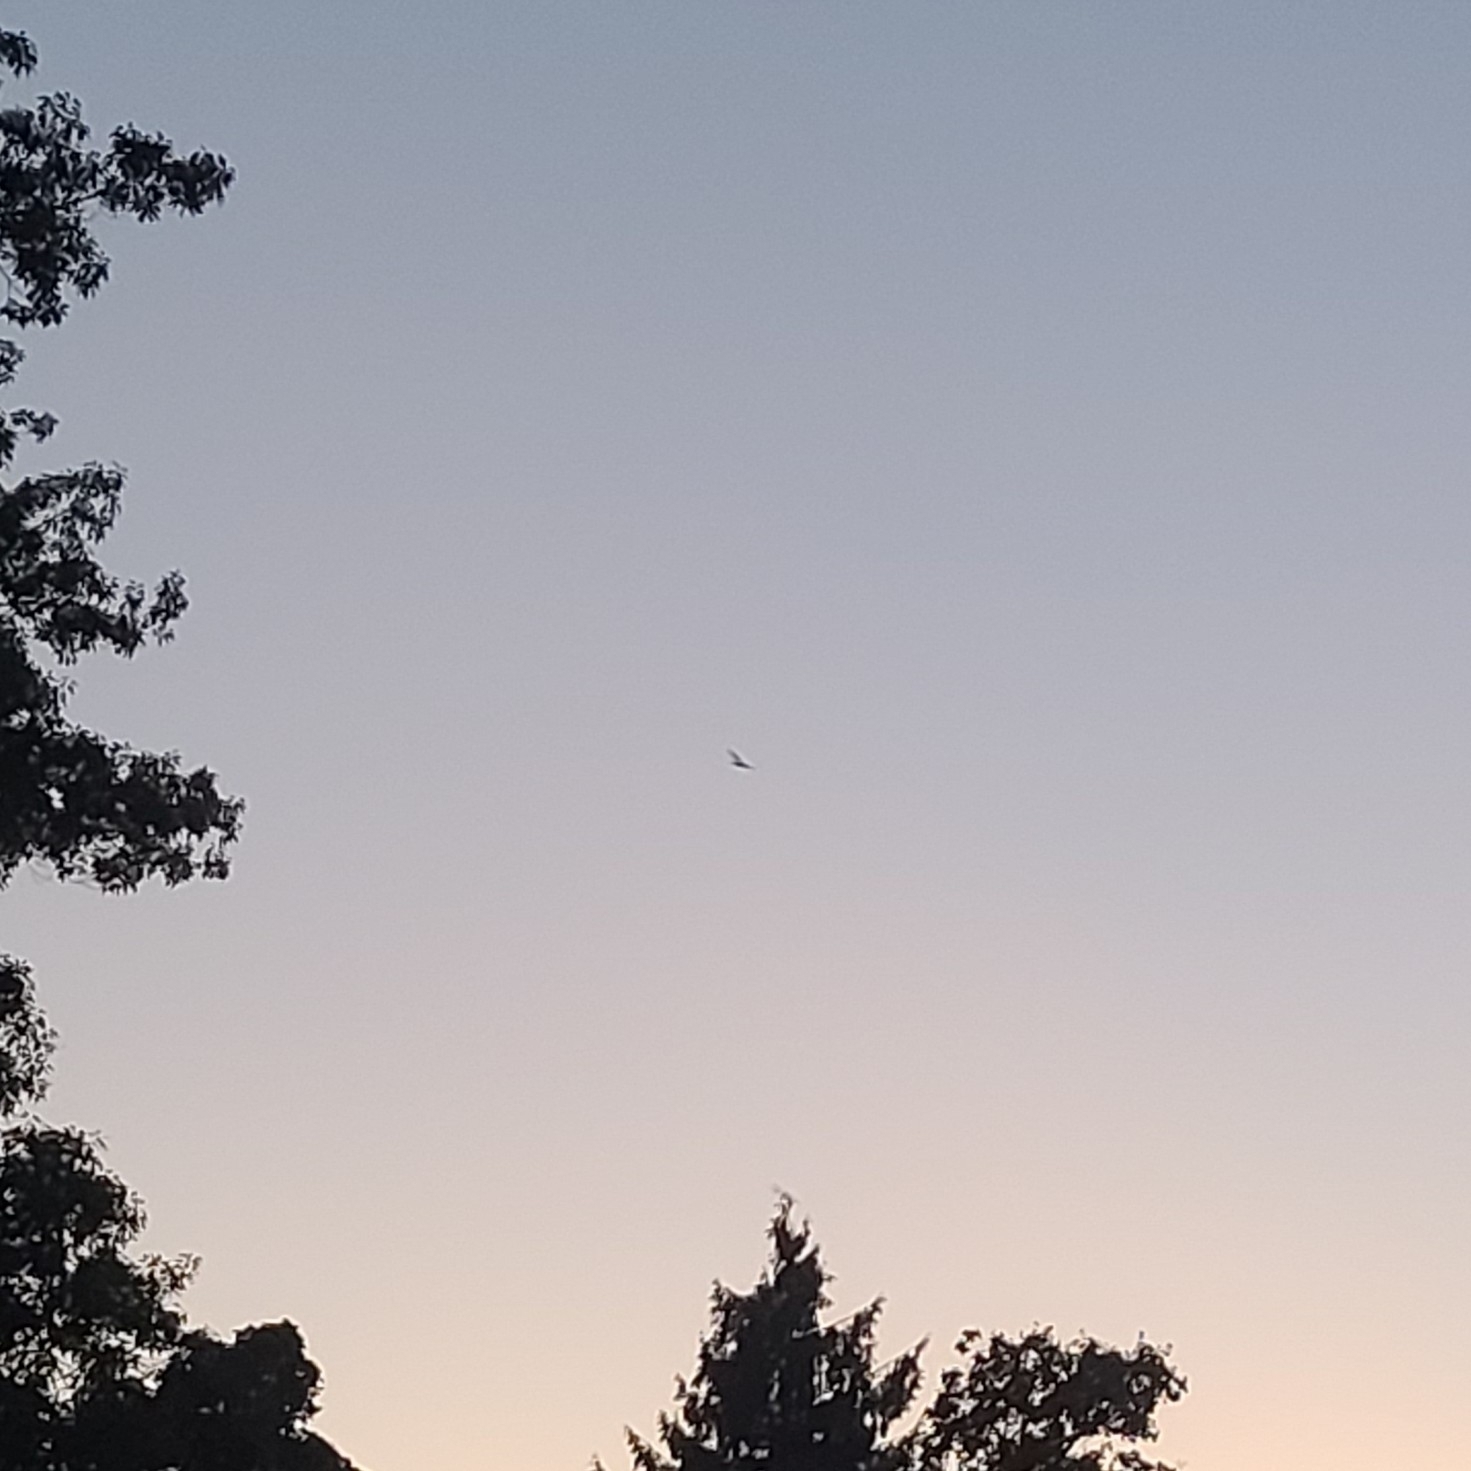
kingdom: Animalia
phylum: Chordata
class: Aves
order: Caprimulgiformes
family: Caprimulgidae
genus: Chordeiles
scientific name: Chordeiles minor
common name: Common nighthawk
